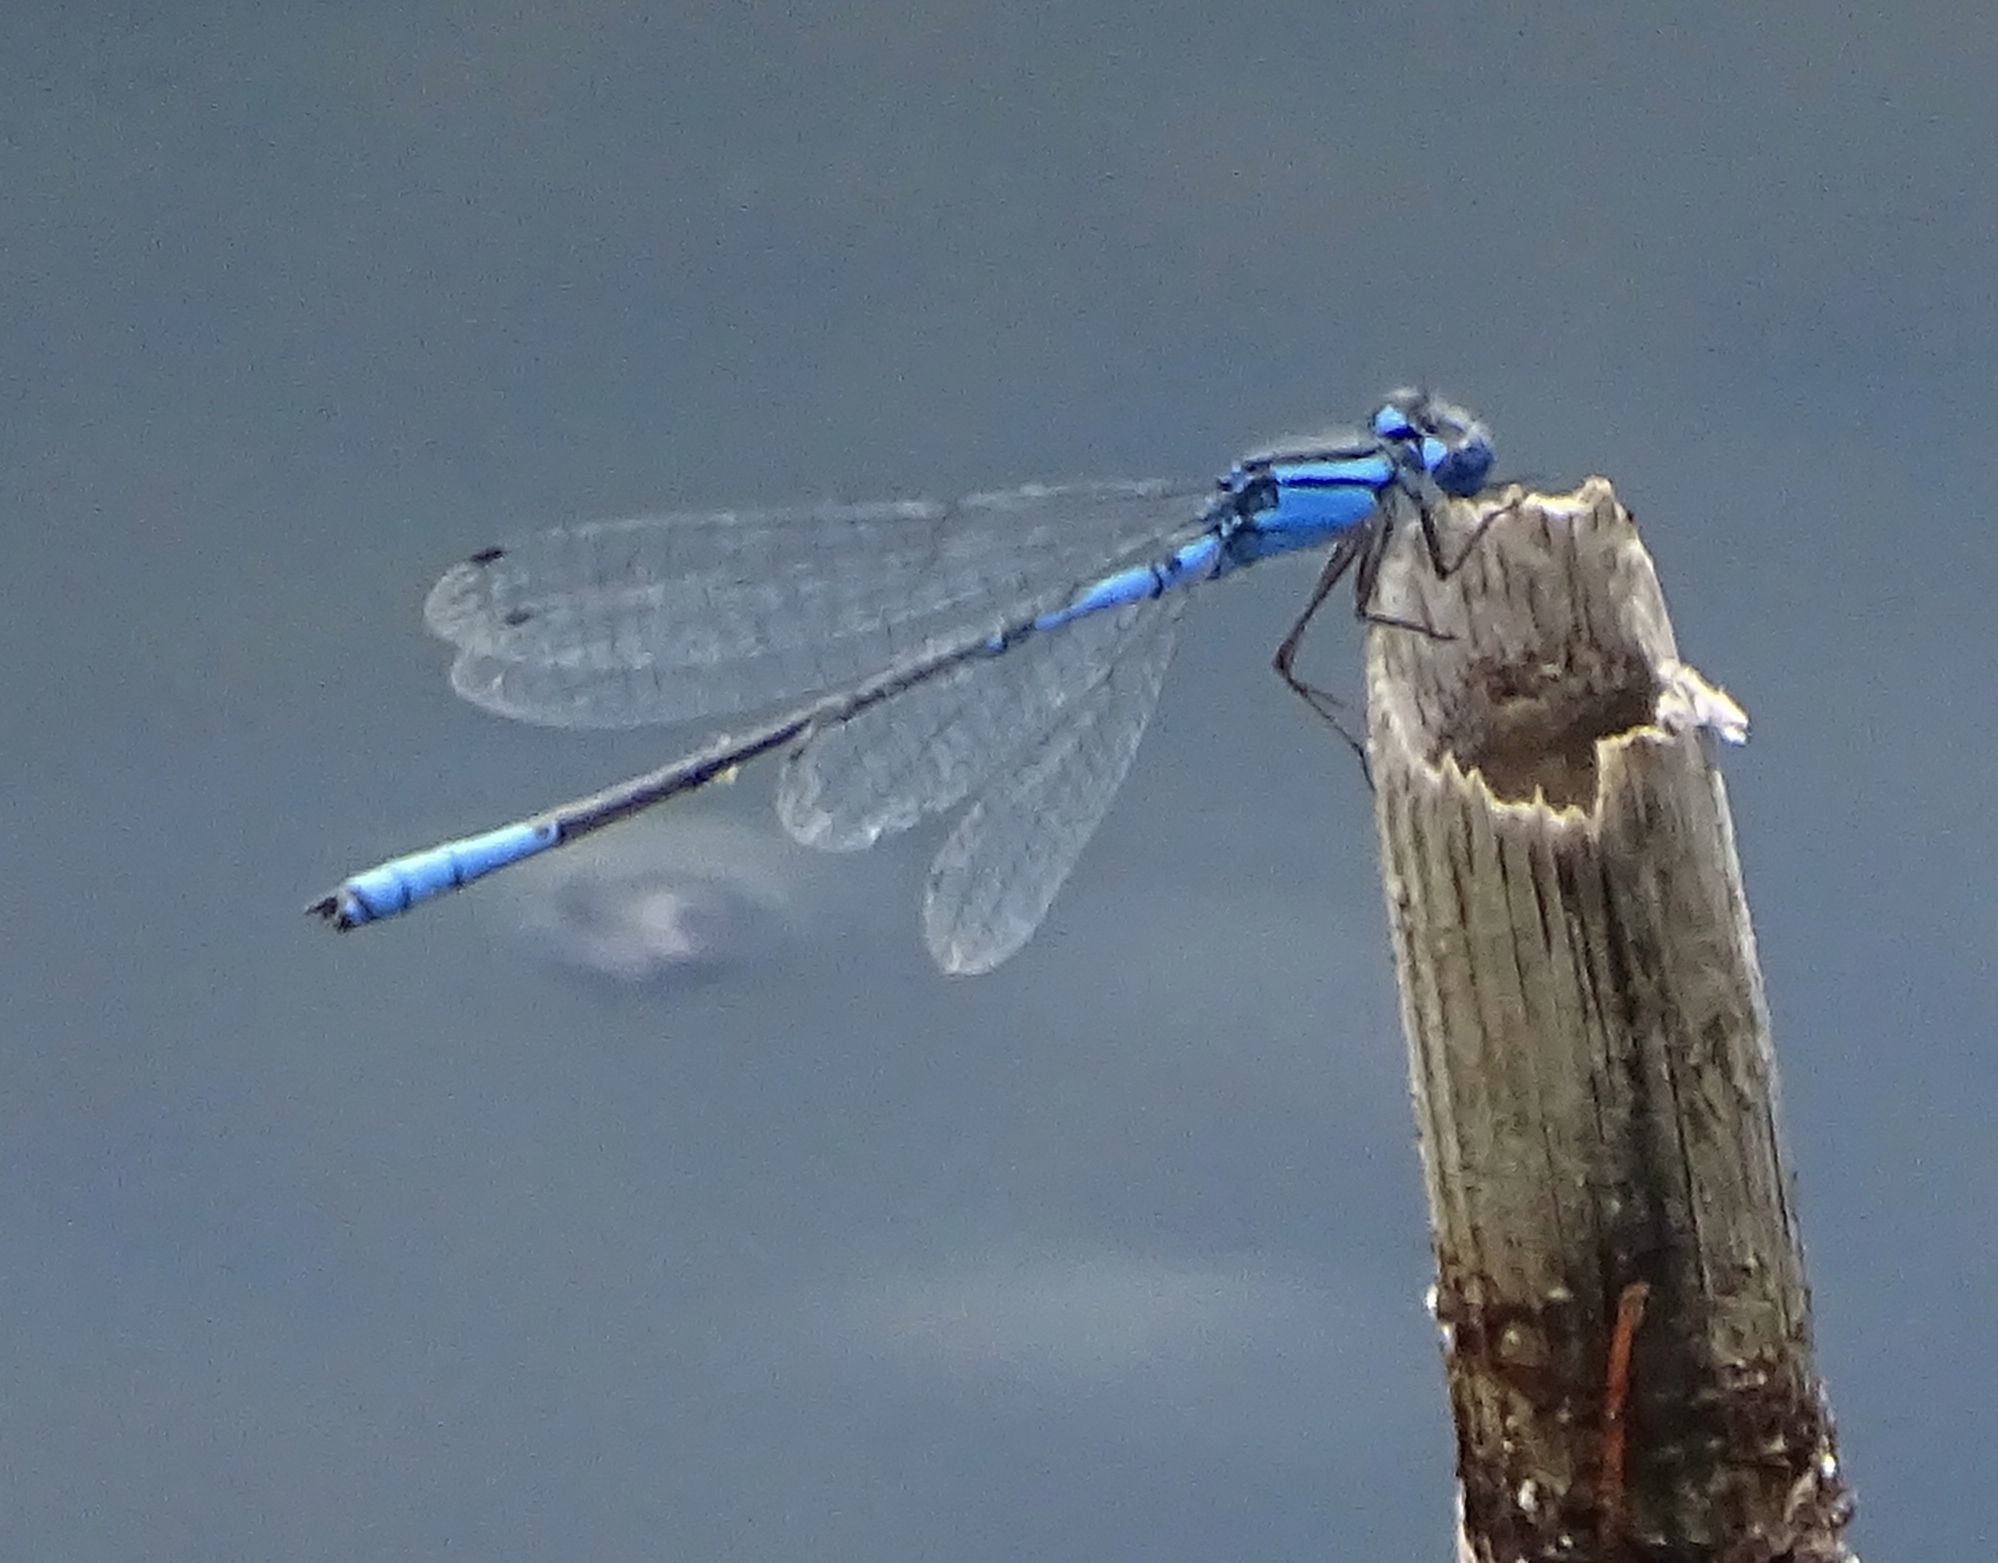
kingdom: Animalia
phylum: Arthropoda
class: Insecta
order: Odonata
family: Coenagrionidae
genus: Enallagma
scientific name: Enallagma aspersum
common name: Azure bluet
